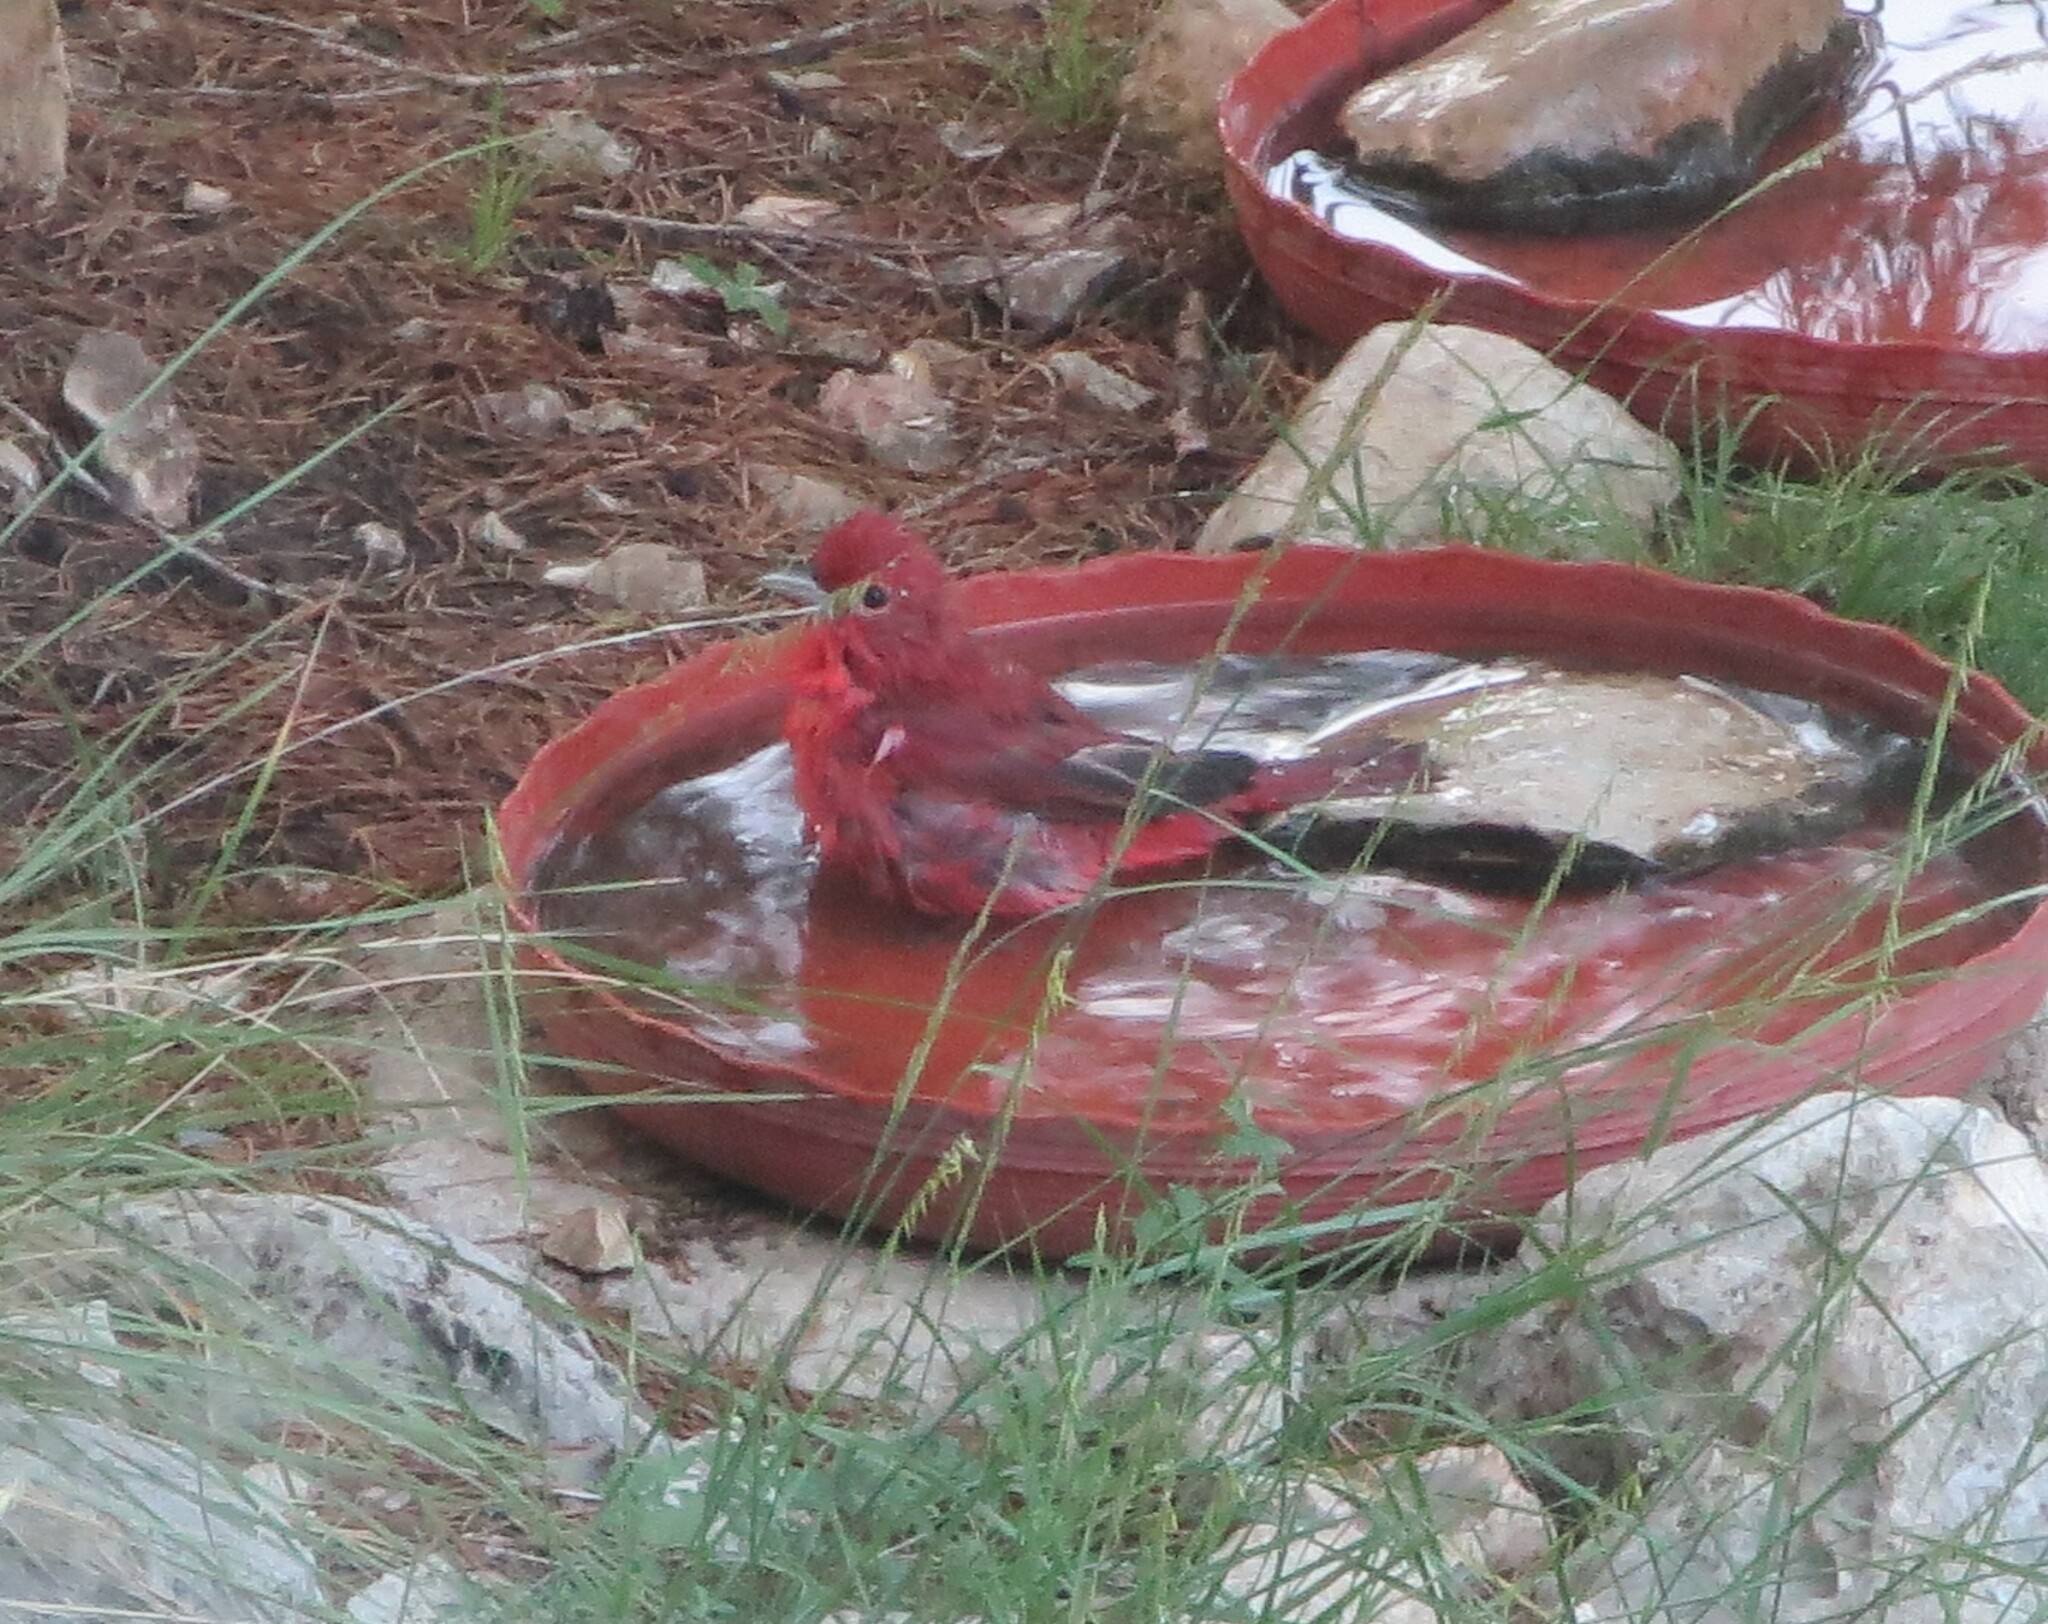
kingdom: Animalia
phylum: Chordata
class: Aves
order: Passeriformes
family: Cardinalidae
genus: Piranga
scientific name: Piranga rubra
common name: Summer tanager
